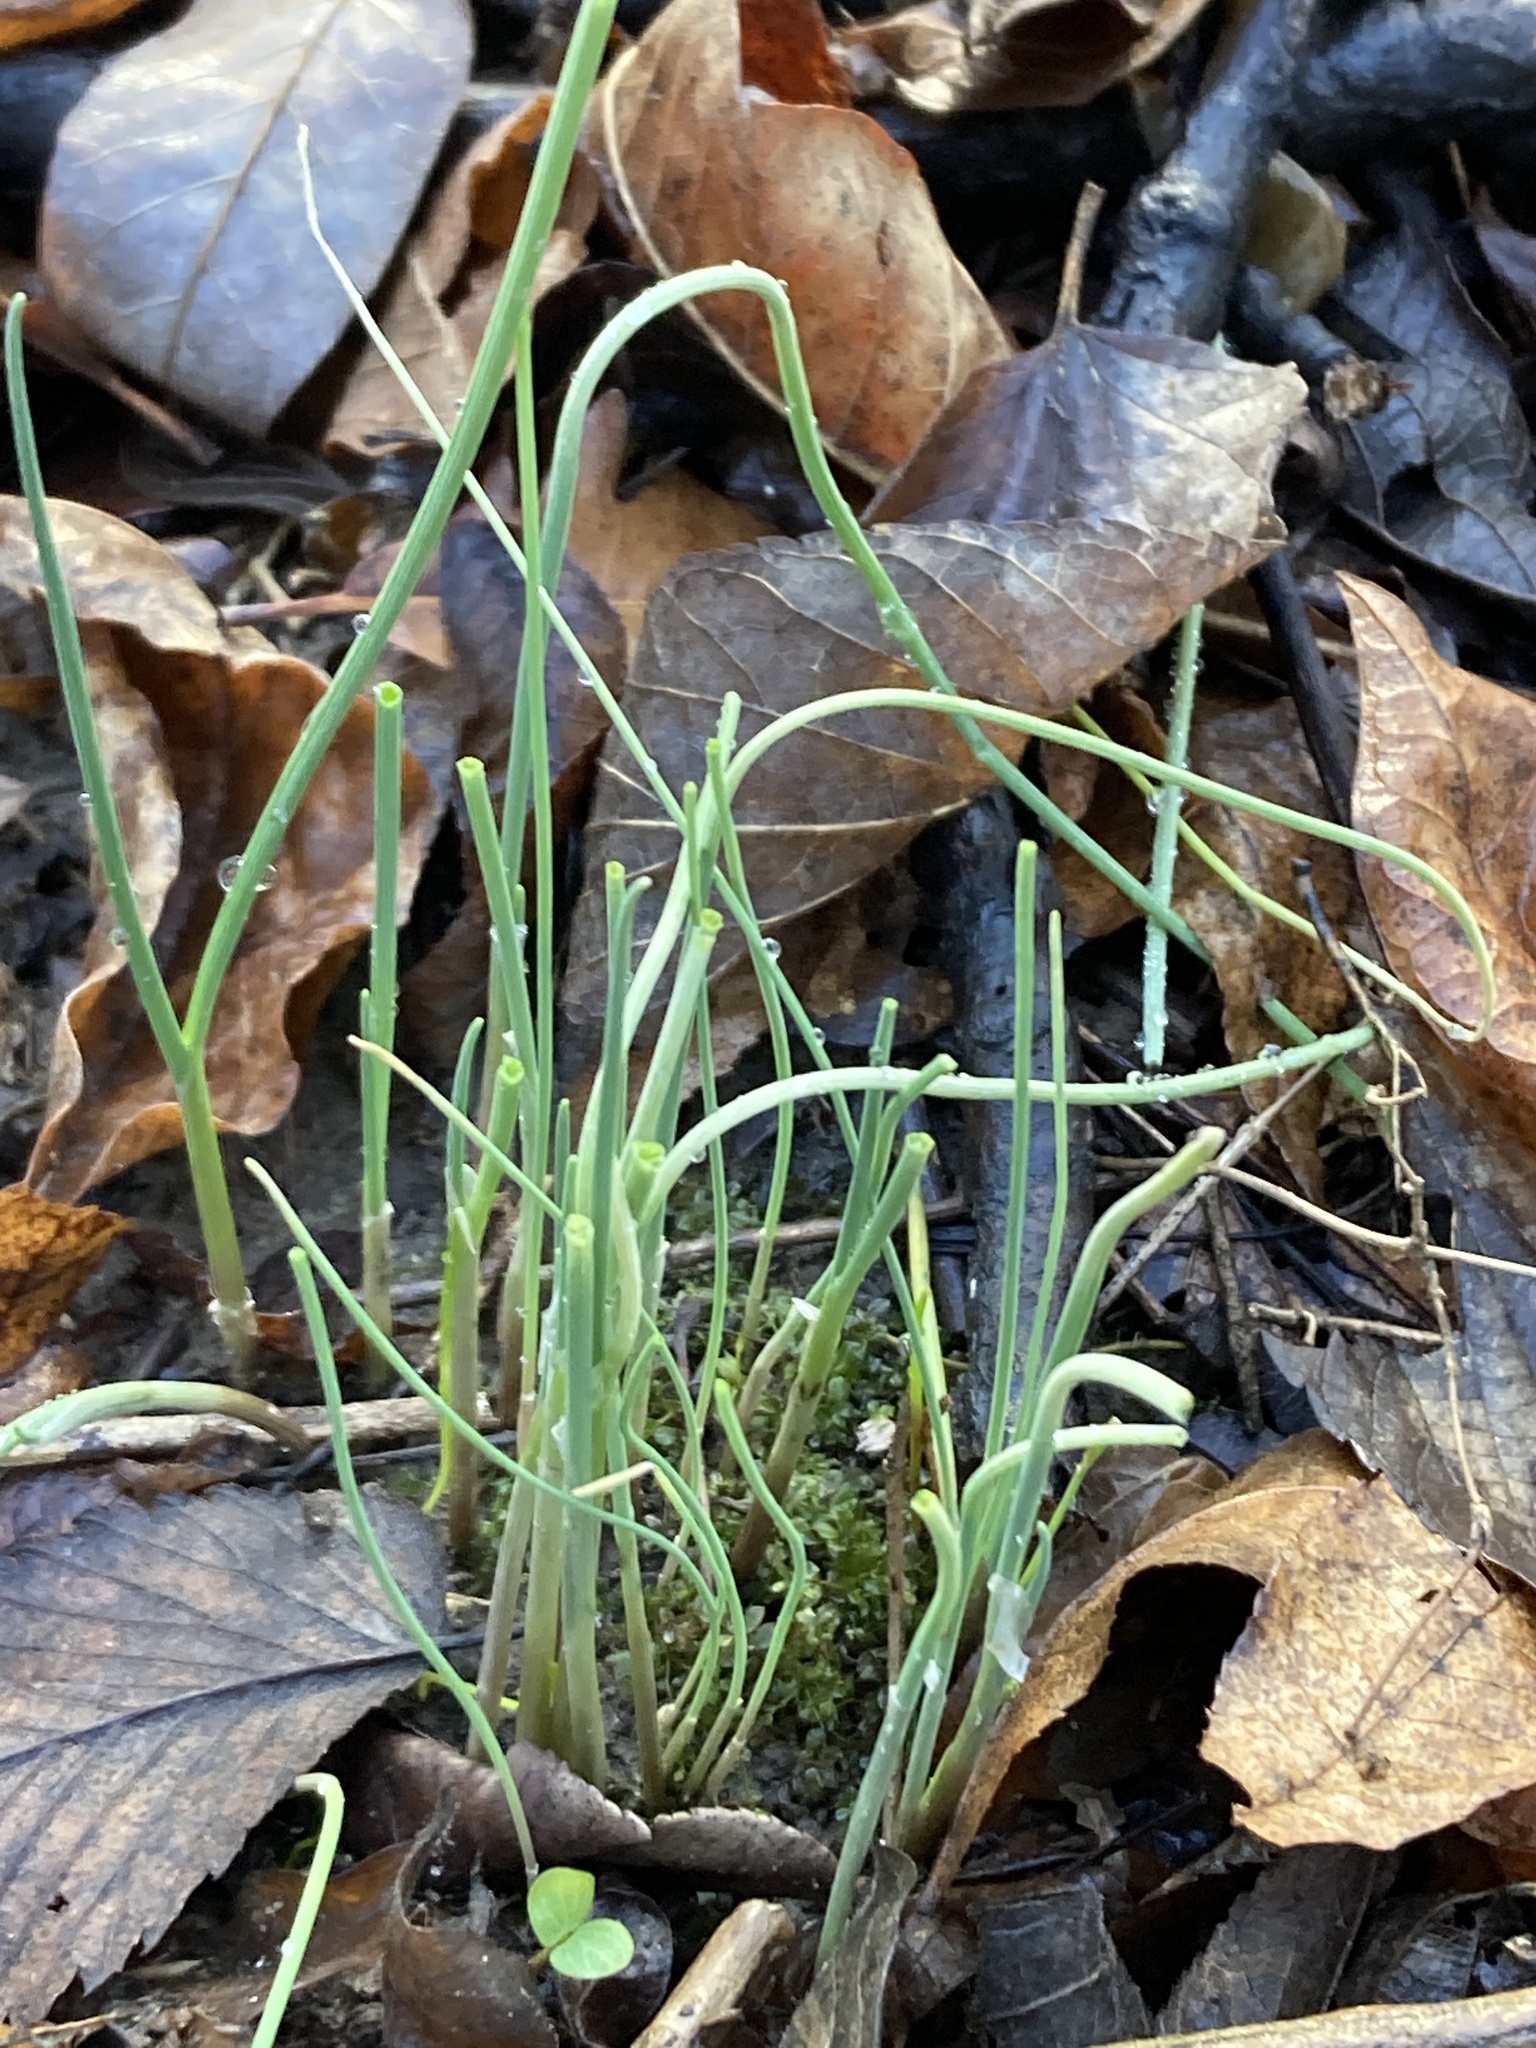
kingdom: Plantae
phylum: Tracheophyta
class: Liliopsida
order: Asparagales
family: Amaryllidaceae
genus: Allium
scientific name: Allium vineale
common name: Crow garlic
